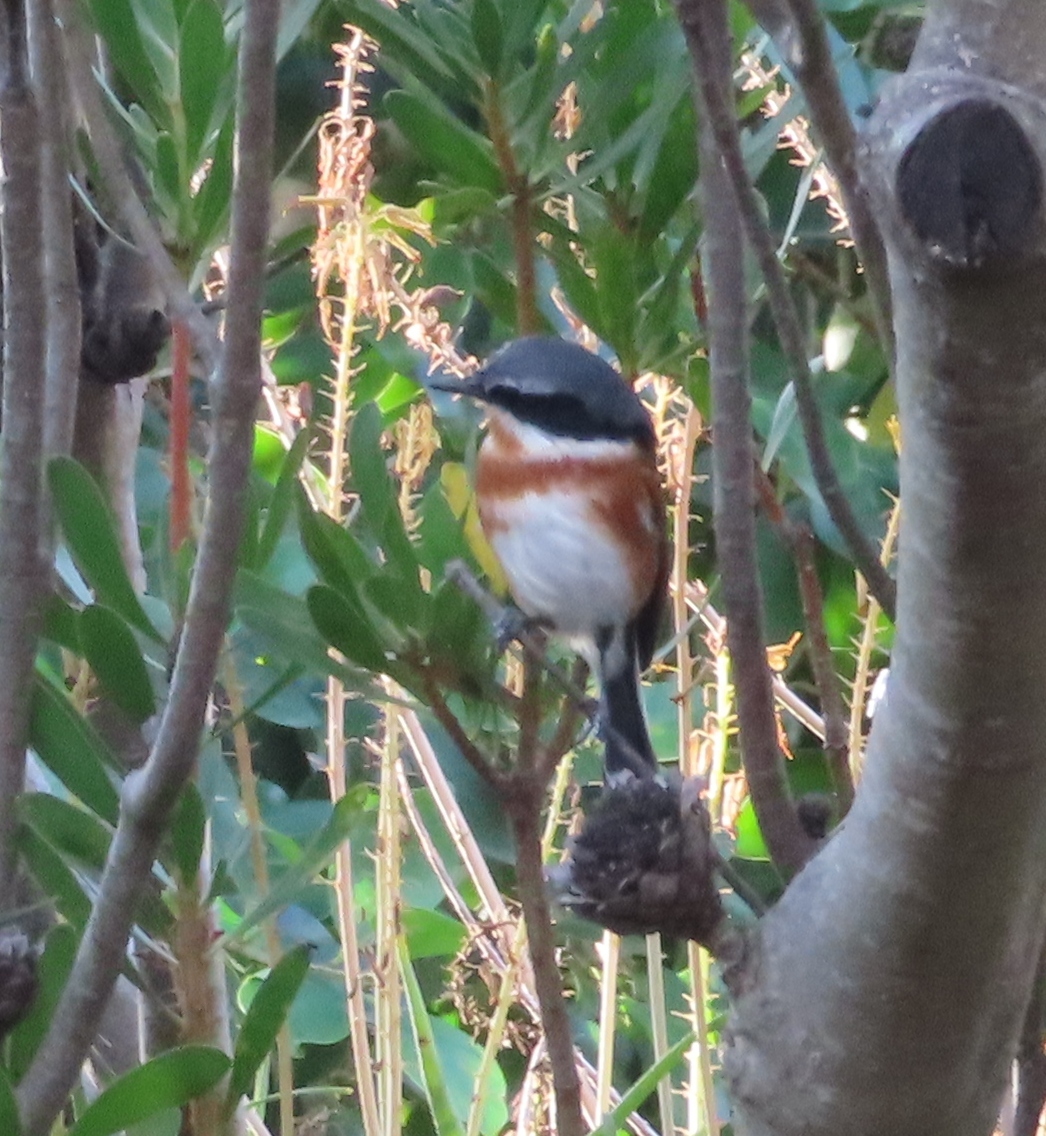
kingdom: Animalia
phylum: Chordata
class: Aves
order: Passeriformes
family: Platysteiridae
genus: Batis
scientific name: Batis capensis
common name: Cape batis
